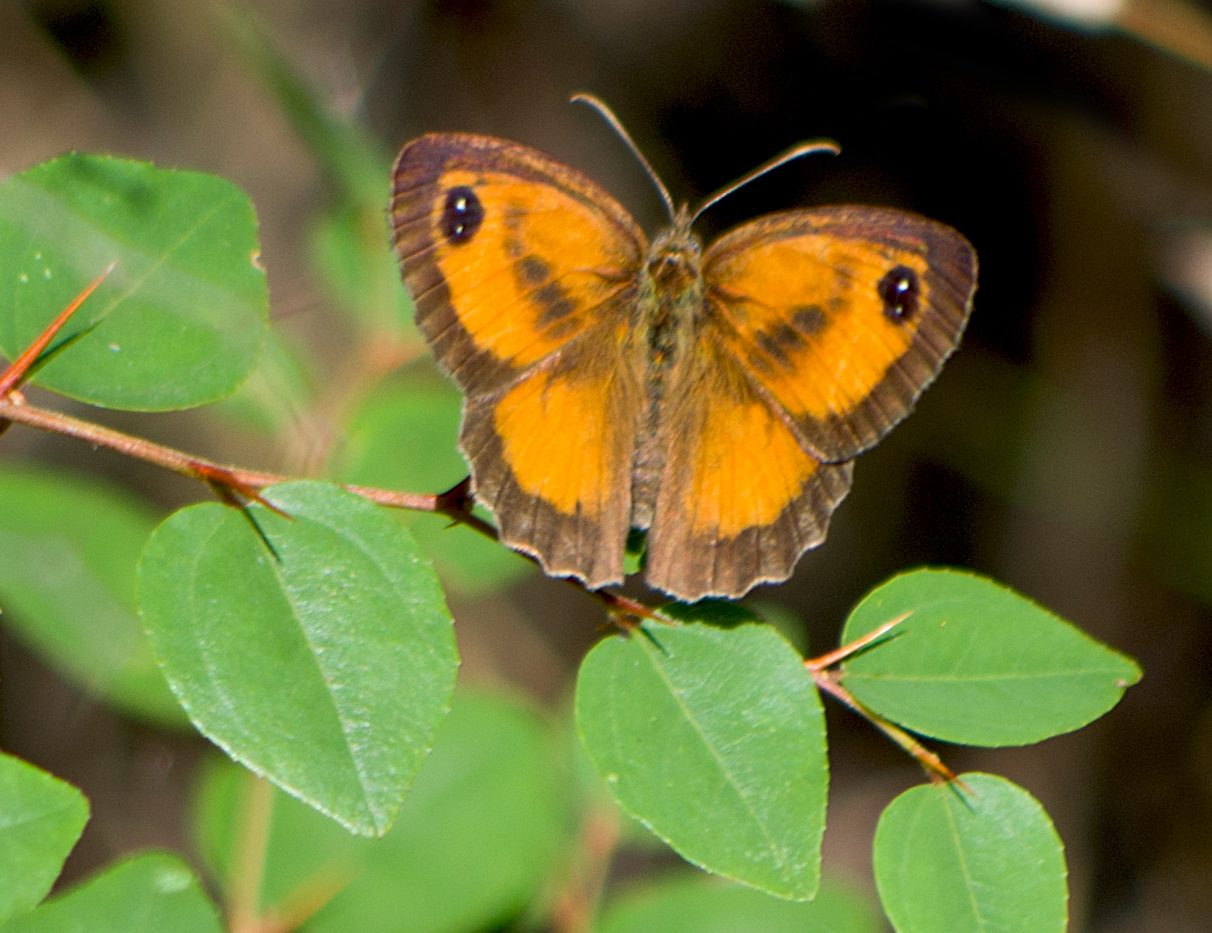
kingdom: Animalia
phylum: Arthropoda
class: Insecta
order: Lepidoptera
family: Nymphalidae
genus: Pyronia
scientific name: Pyronia tithonus
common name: Gatekeeper
